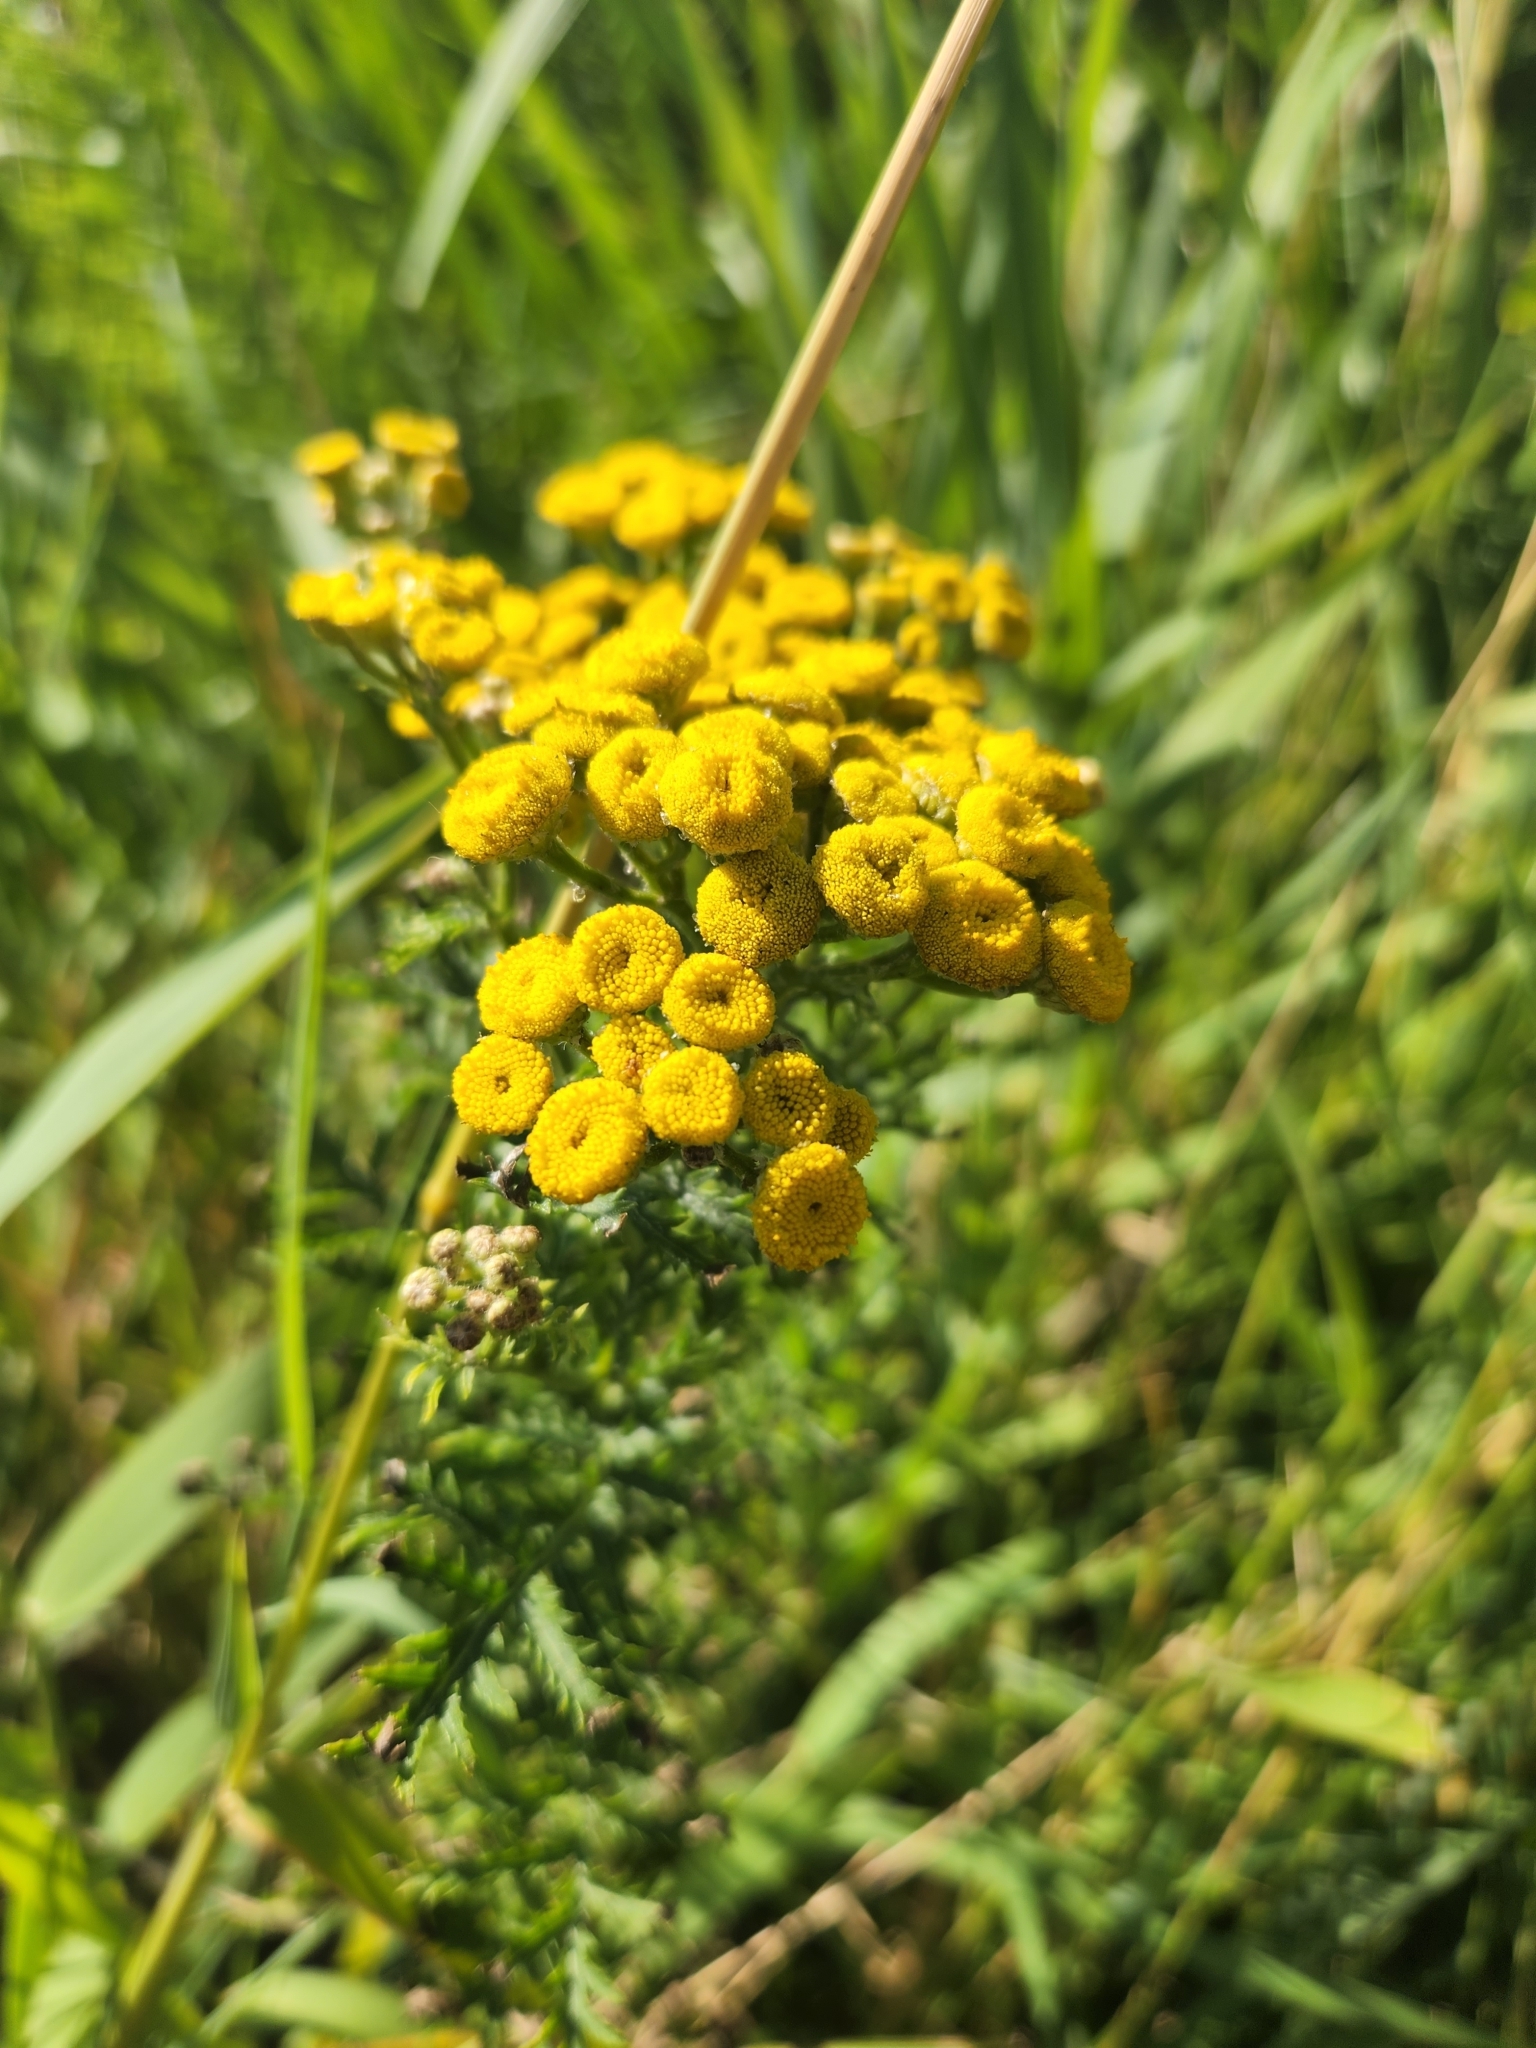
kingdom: Plantae
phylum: Tracheophyta
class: Magnoliopsida
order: Asterales
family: Asteraceae
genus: Tanacetum
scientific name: Tanacetum vulgare
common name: Common tansy
